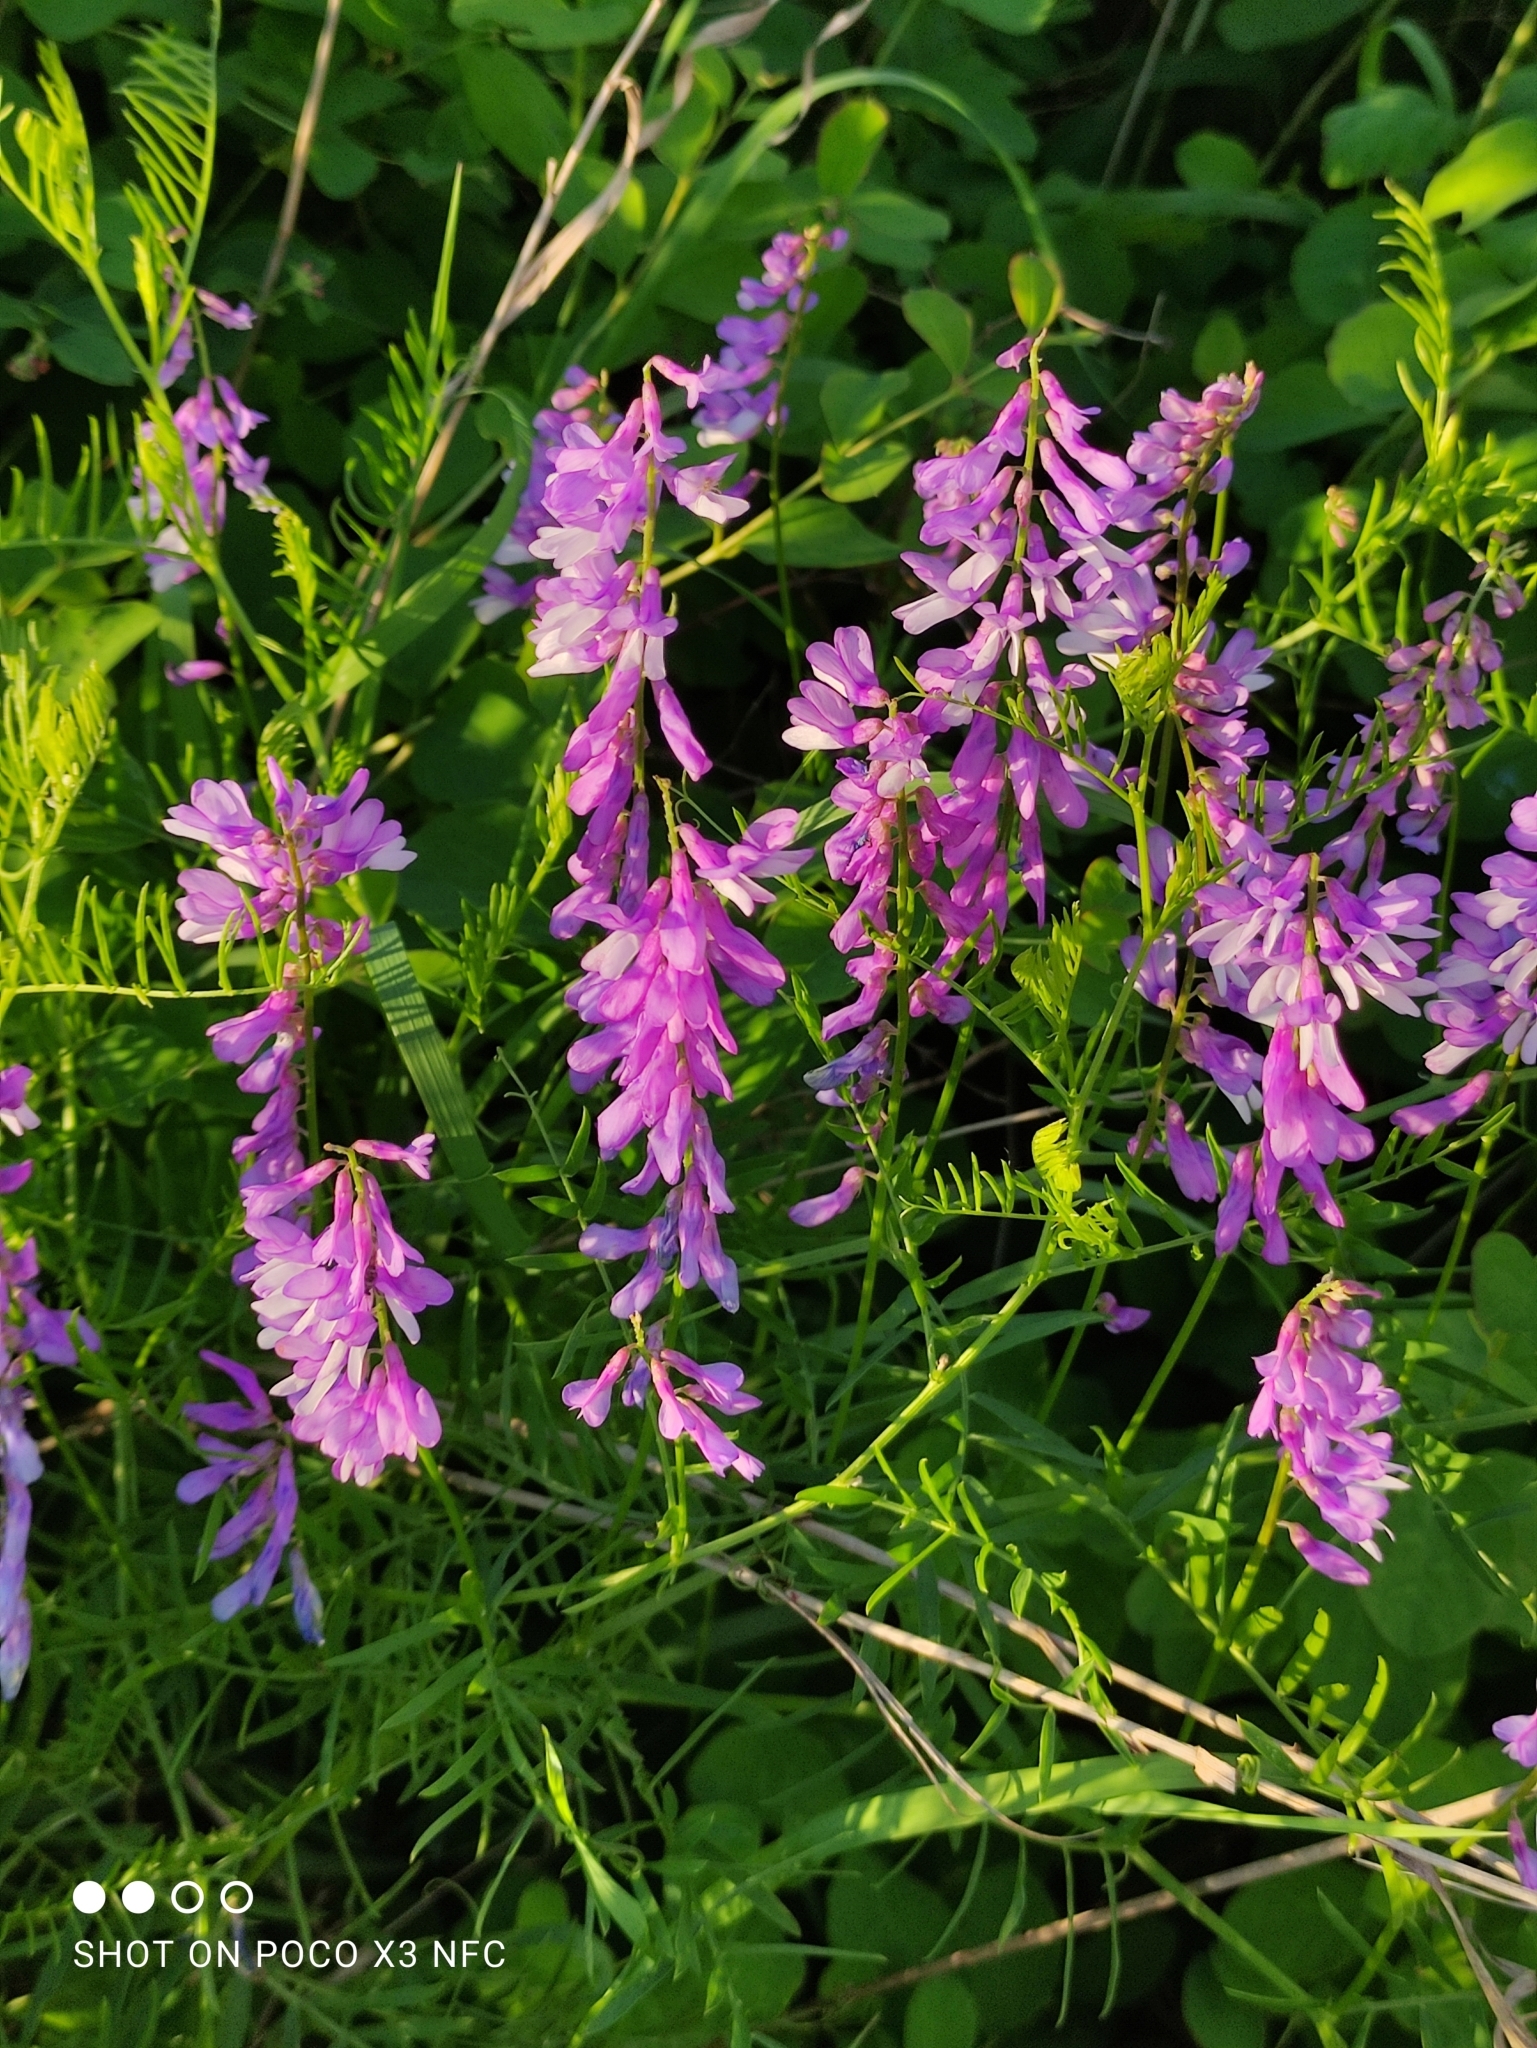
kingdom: Plantae
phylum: Tracheophyta
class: Magnoliopsida
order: Fabales
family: Fabaceae
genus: Vicia
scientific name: Vicia tenuifolia
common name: Fine-leaved vetch
